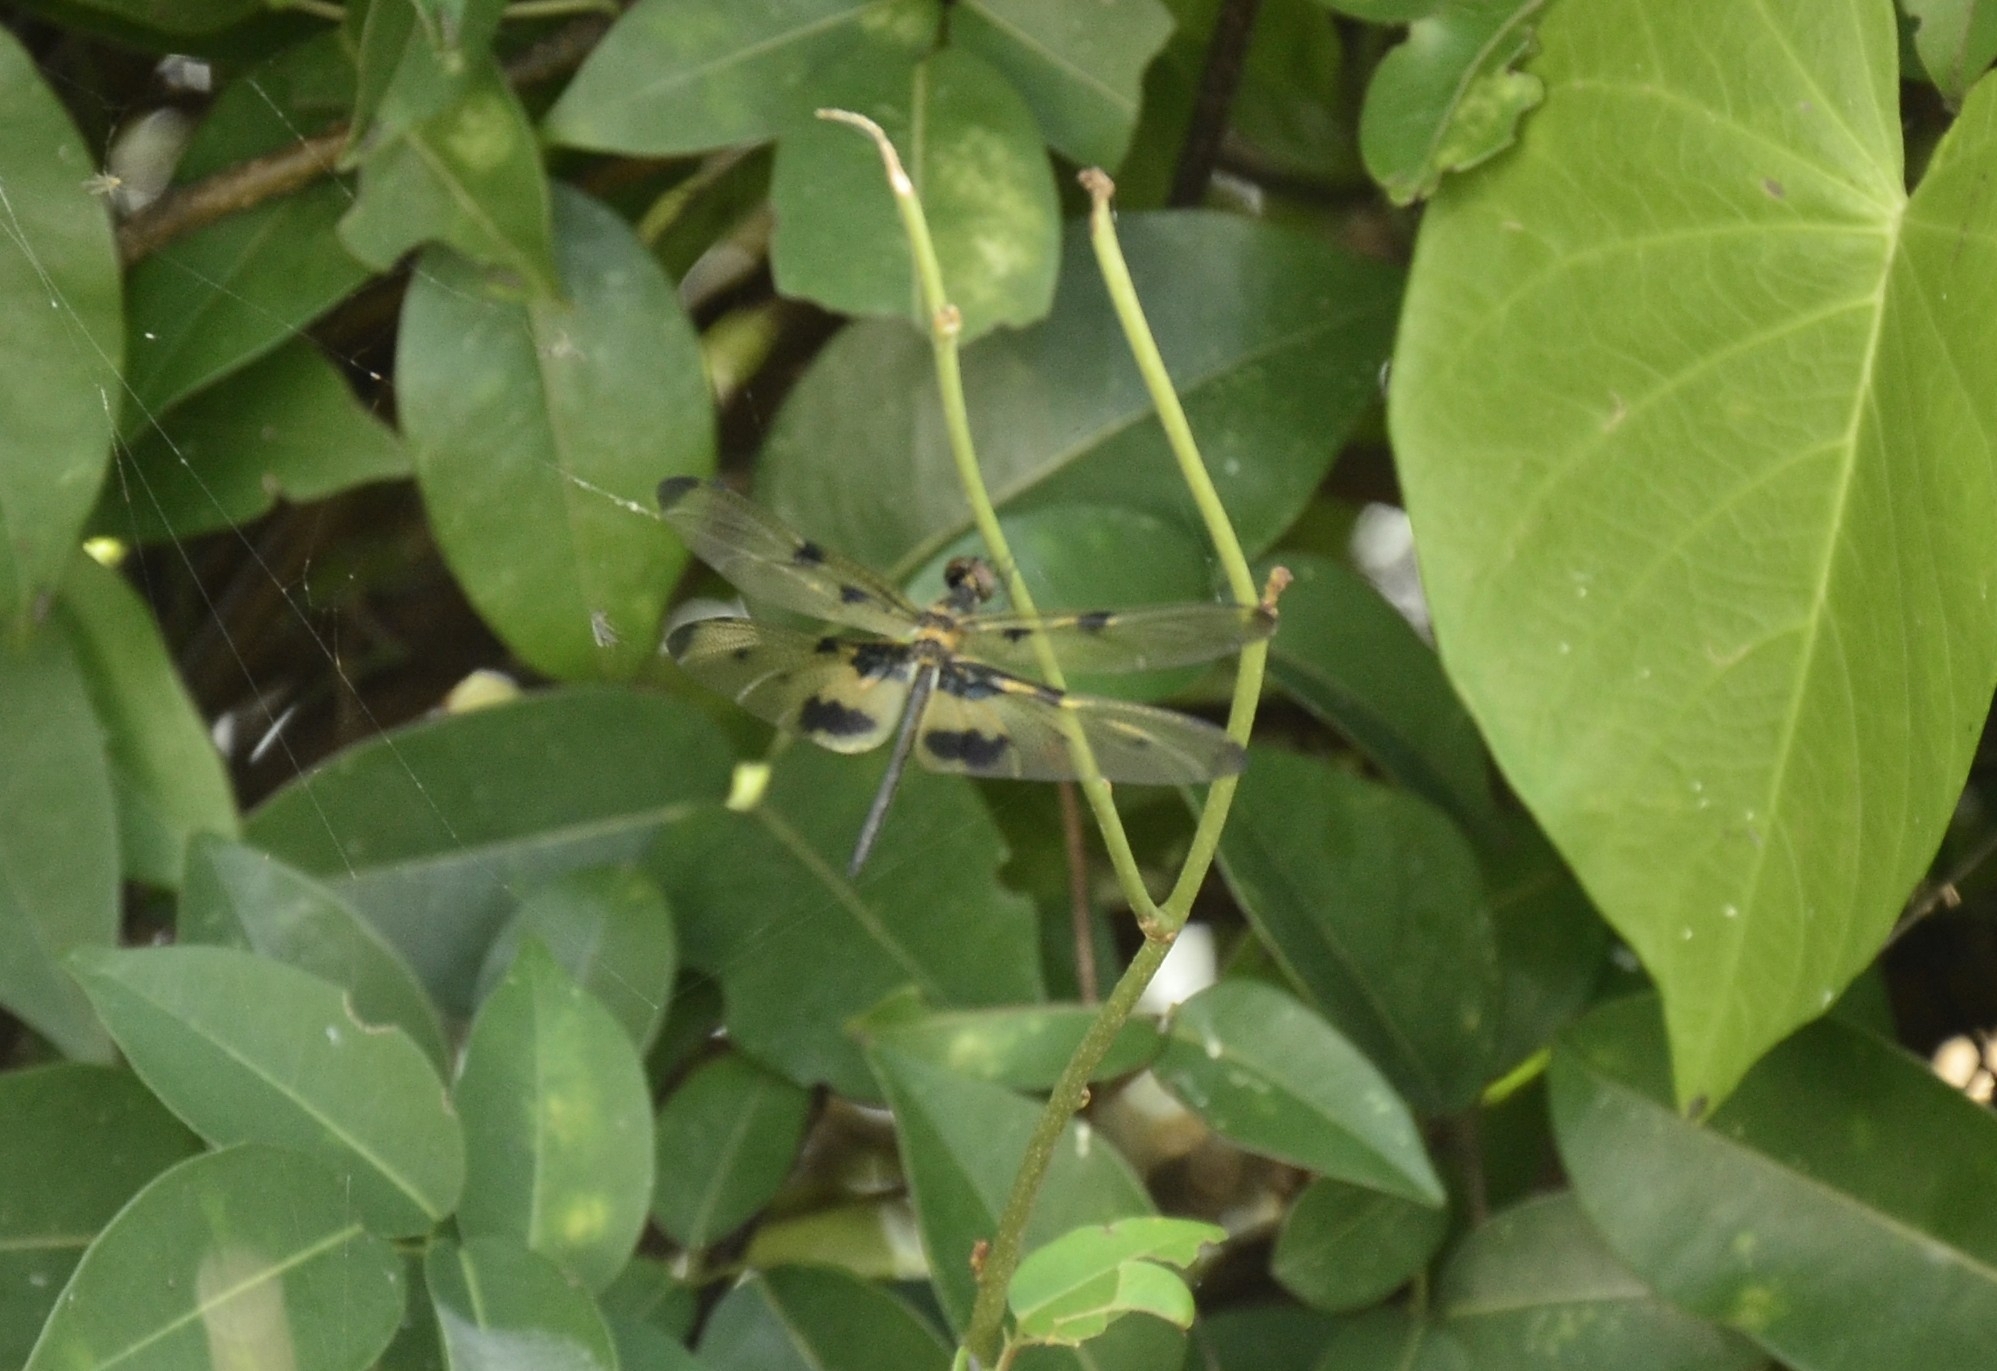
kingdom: Animalia
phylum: Arthropoda
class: Insecta
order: Odonata
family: Libellulidae
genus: Rhyothemis
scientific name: Rhyothemis variegata
